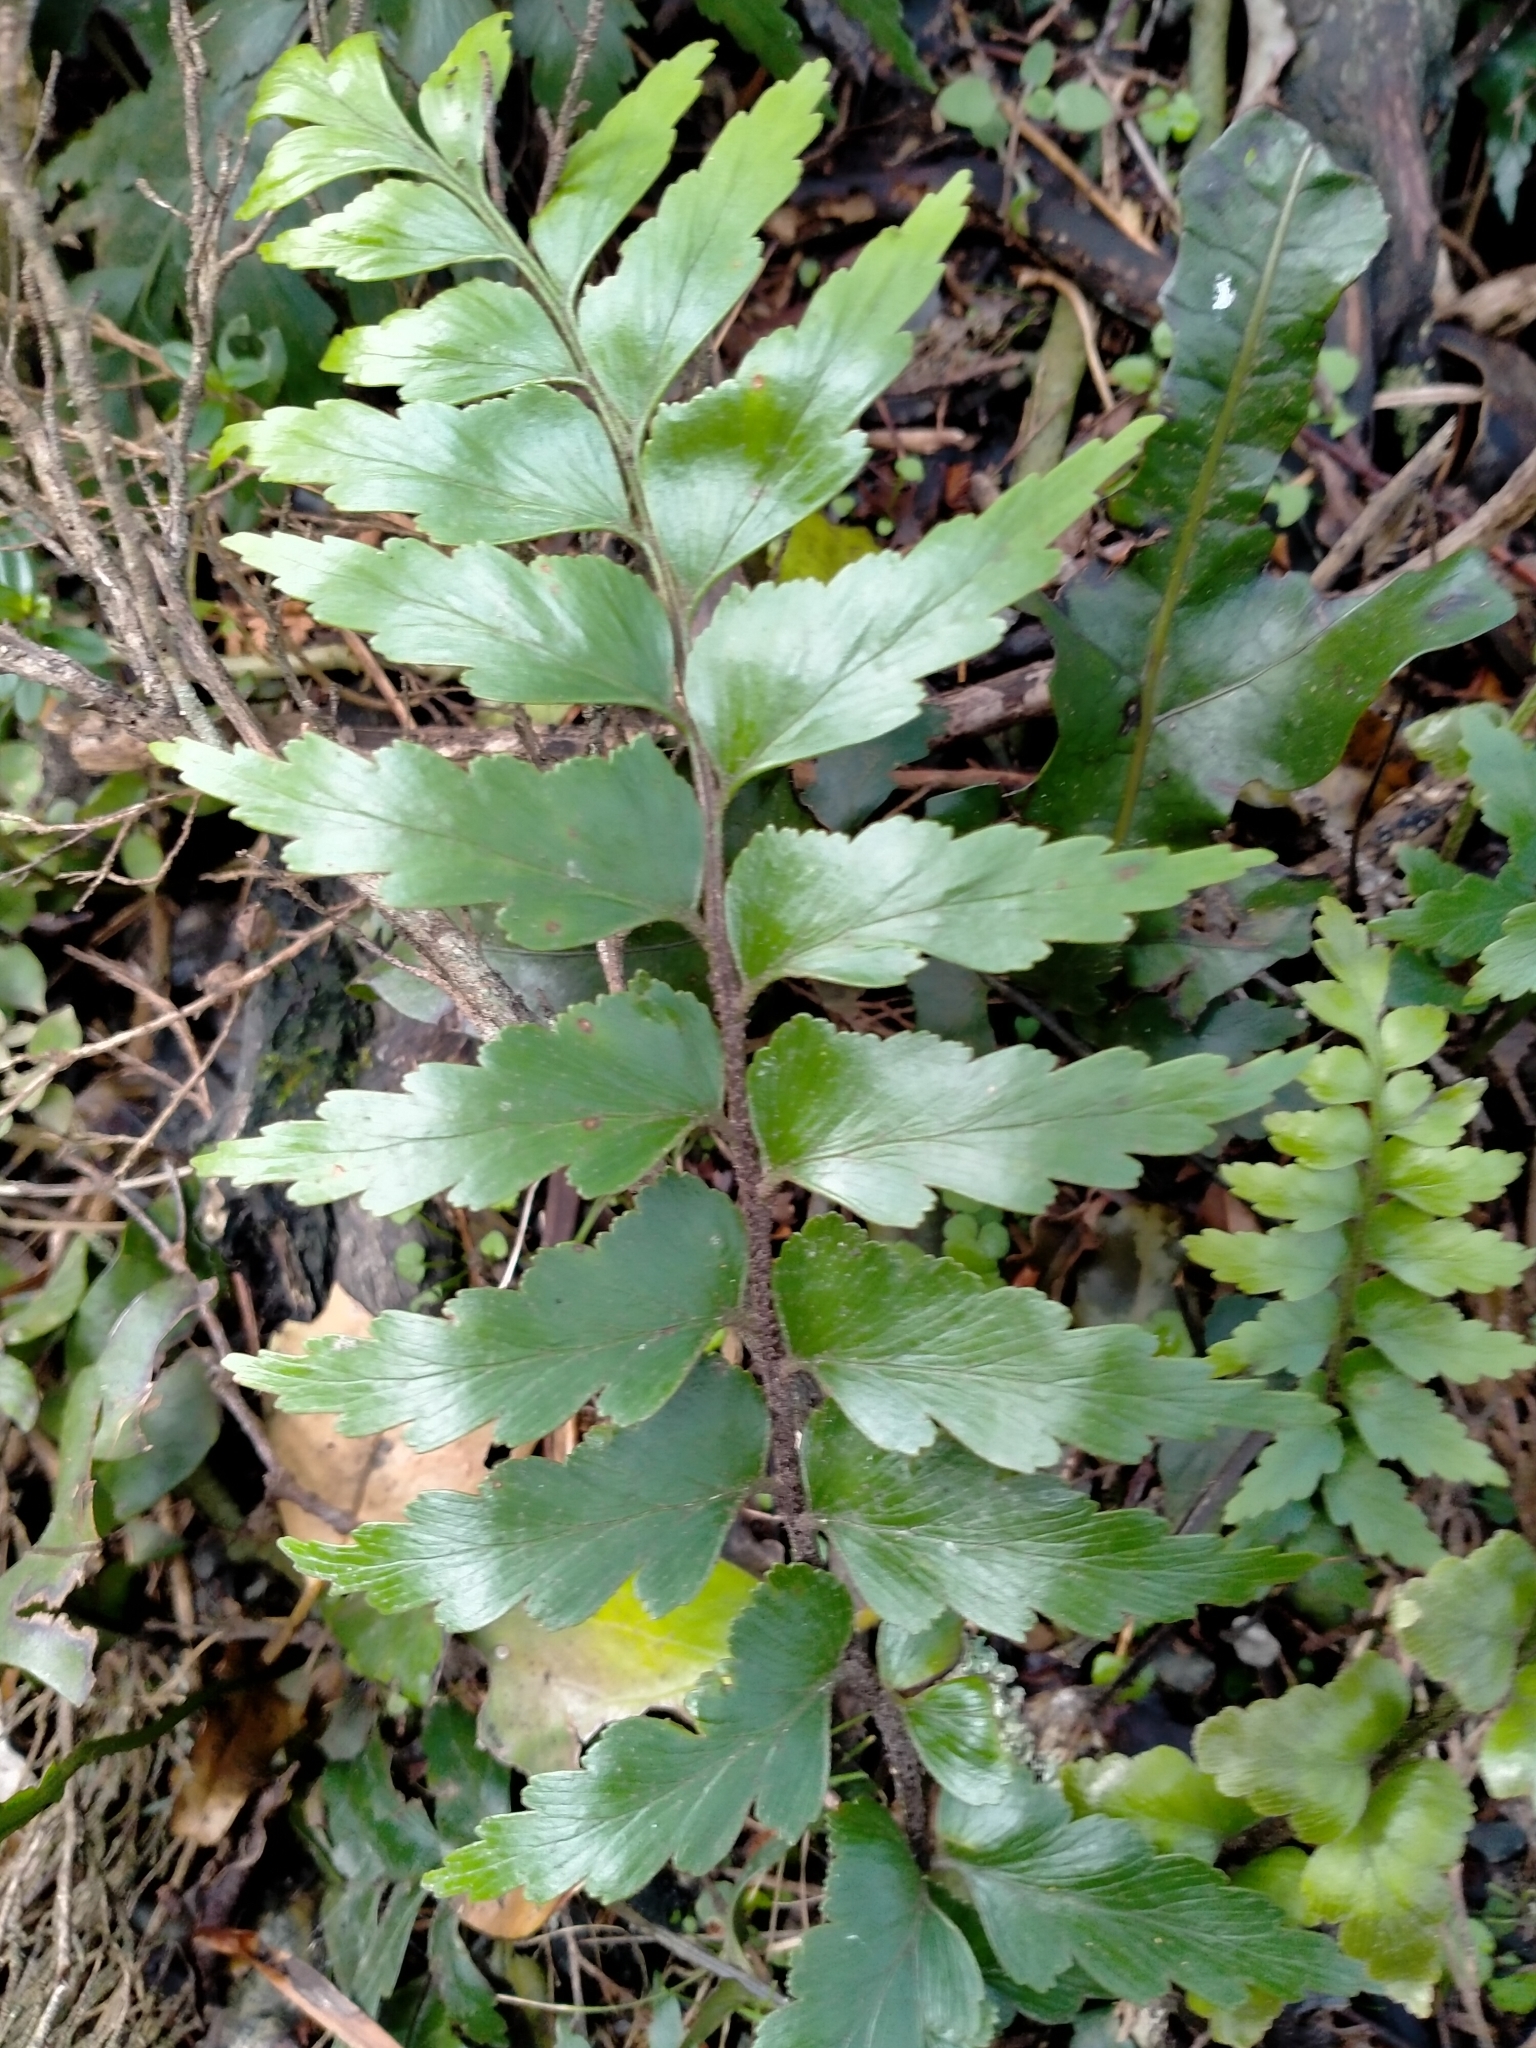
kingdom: Plantae
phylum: Tracheophyta
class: Polypodiopsida
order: Polypodiales
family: Aspleniaceae
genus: Asplenium
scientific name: Asplenium polyodon
